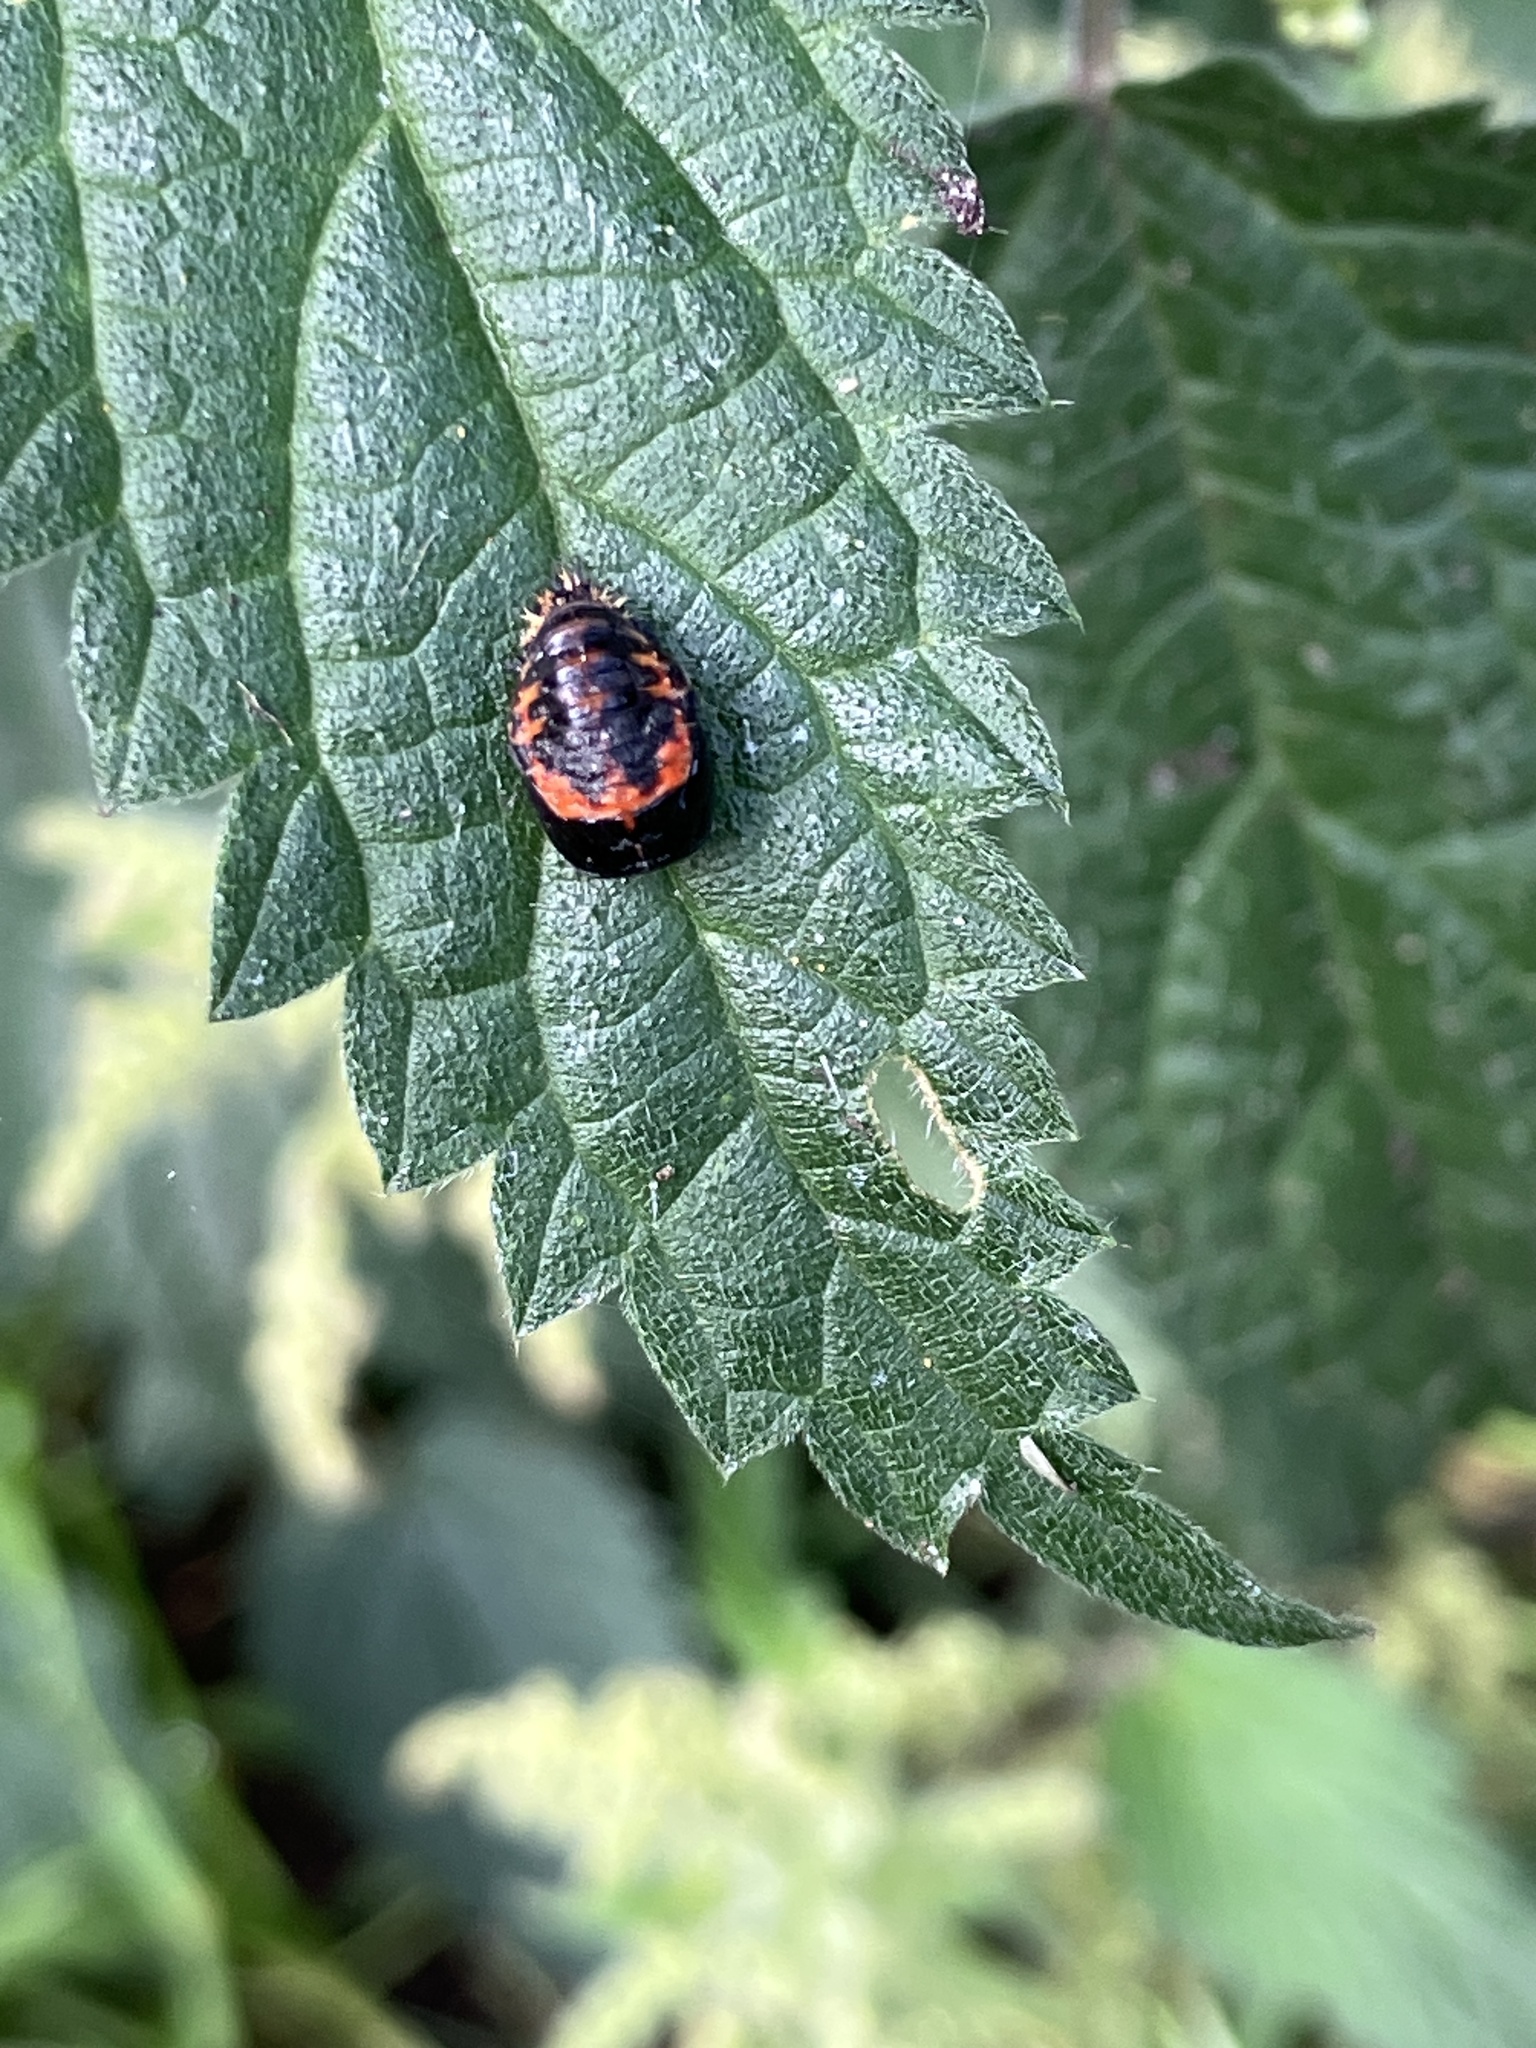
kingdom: Animalia
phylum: Arthropoda
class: Insecta
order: Coleoptera
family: Coccinellidae
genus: Harmonia
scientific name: Harmonia axyridis
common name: Harlequin ladybird
